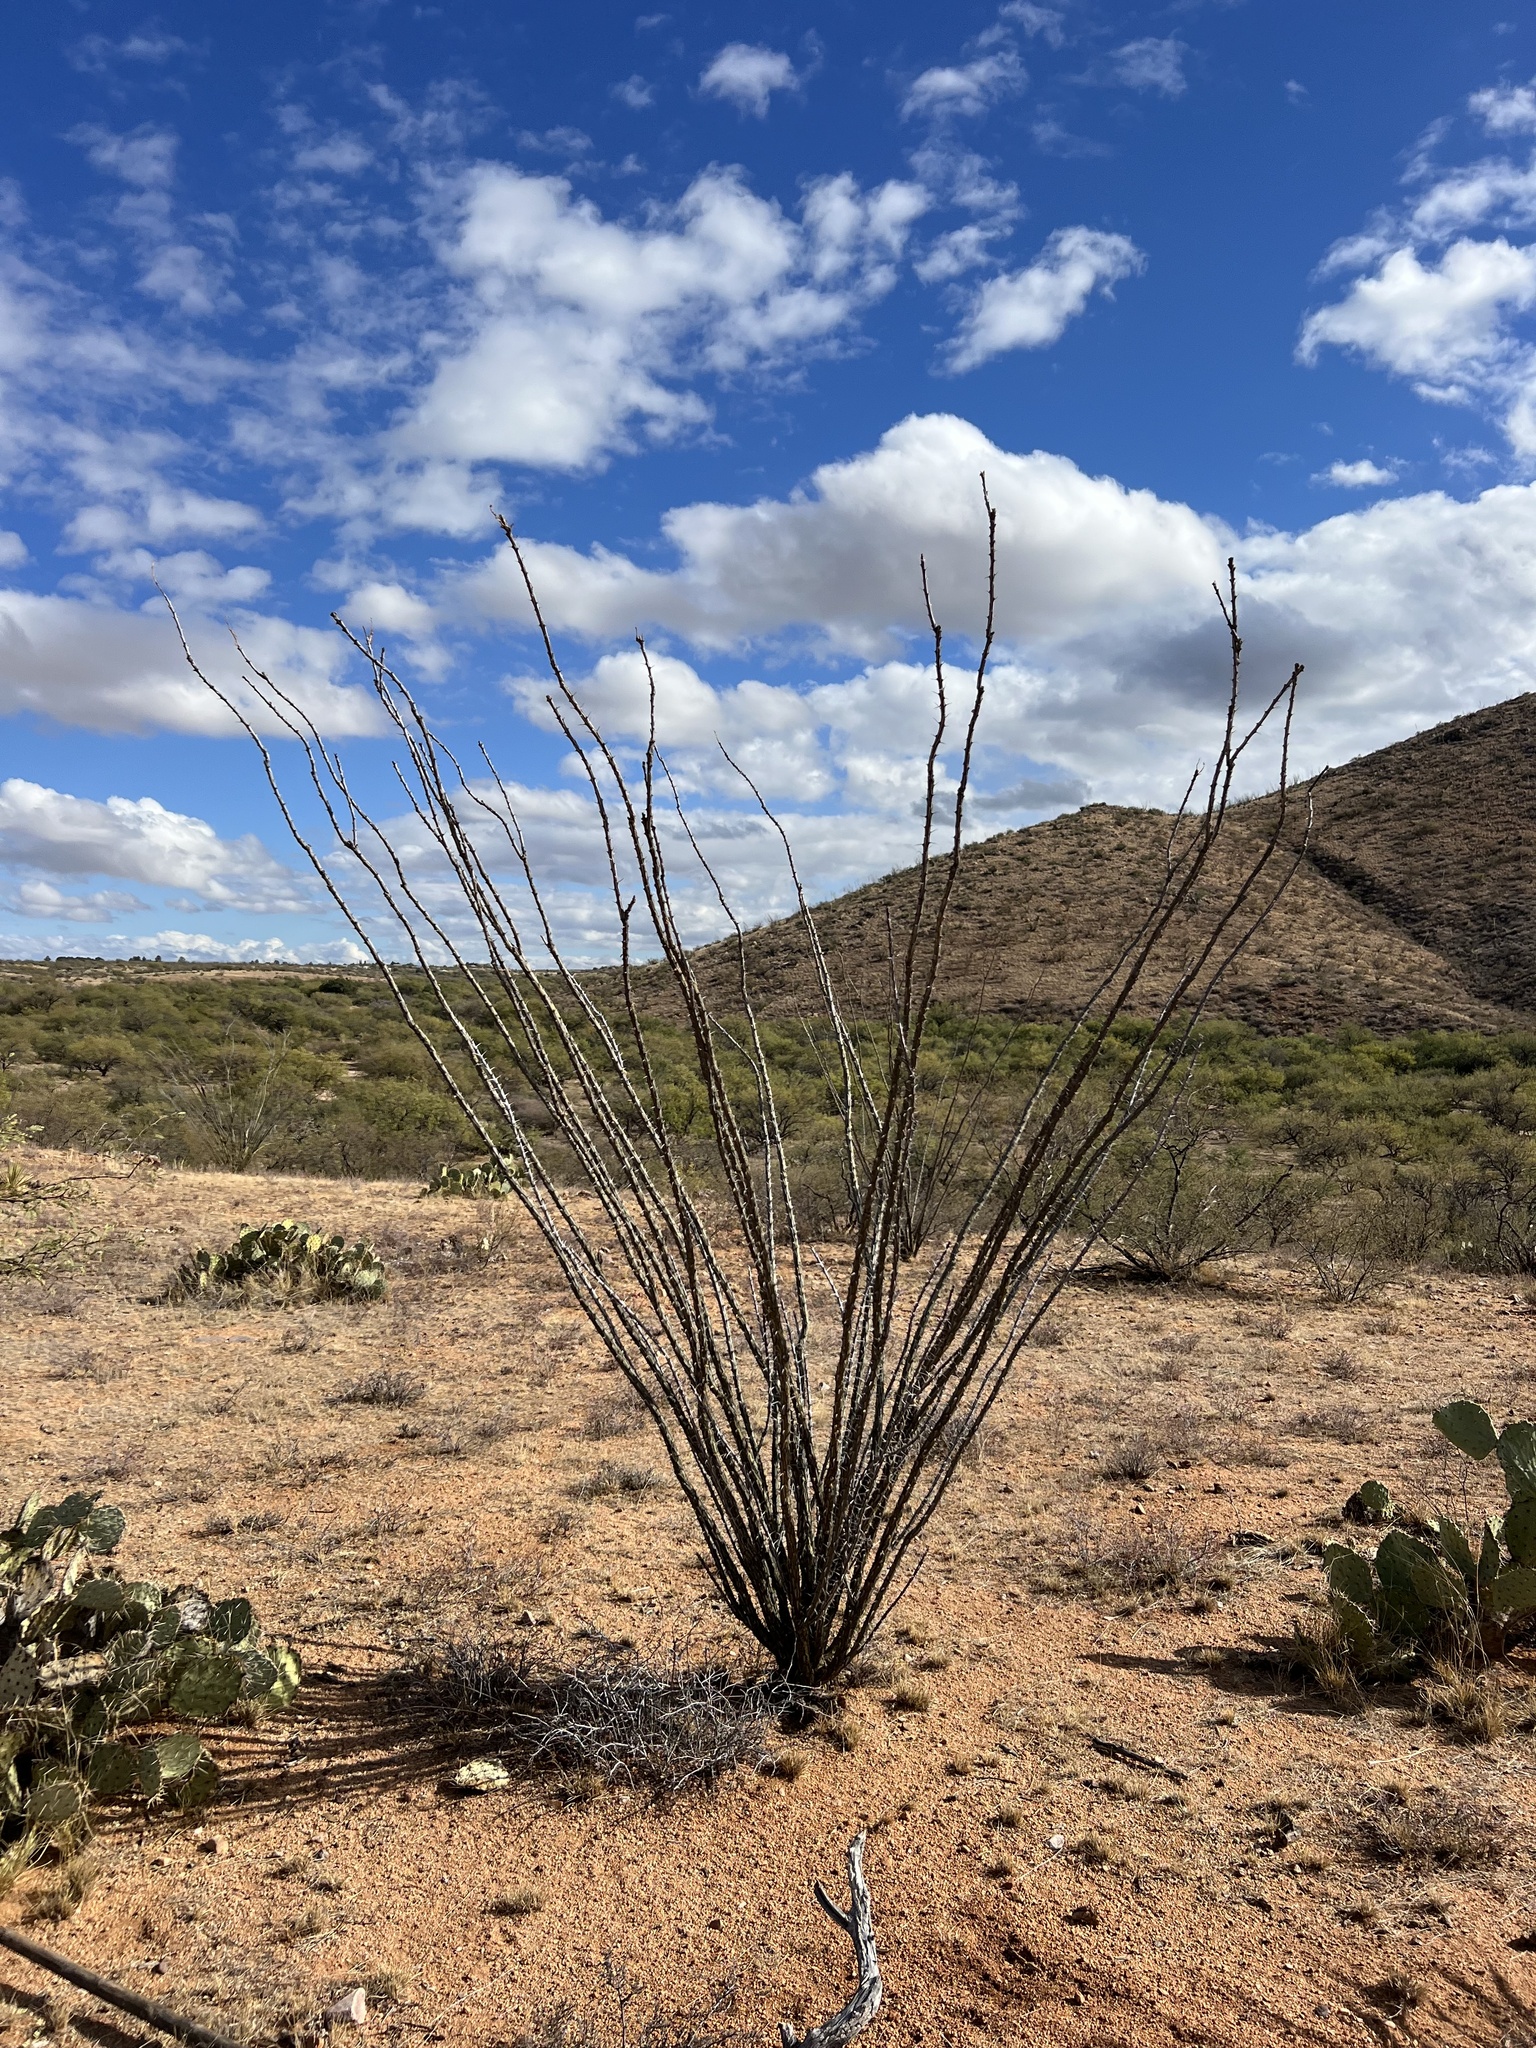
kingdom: Plantae
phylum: Tracheophyta
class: Magnoliopsida
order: Ericales
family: Fouquieriaceae
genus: Fouquieria
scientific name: Fouquieria splendens
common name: Vine-cactus
